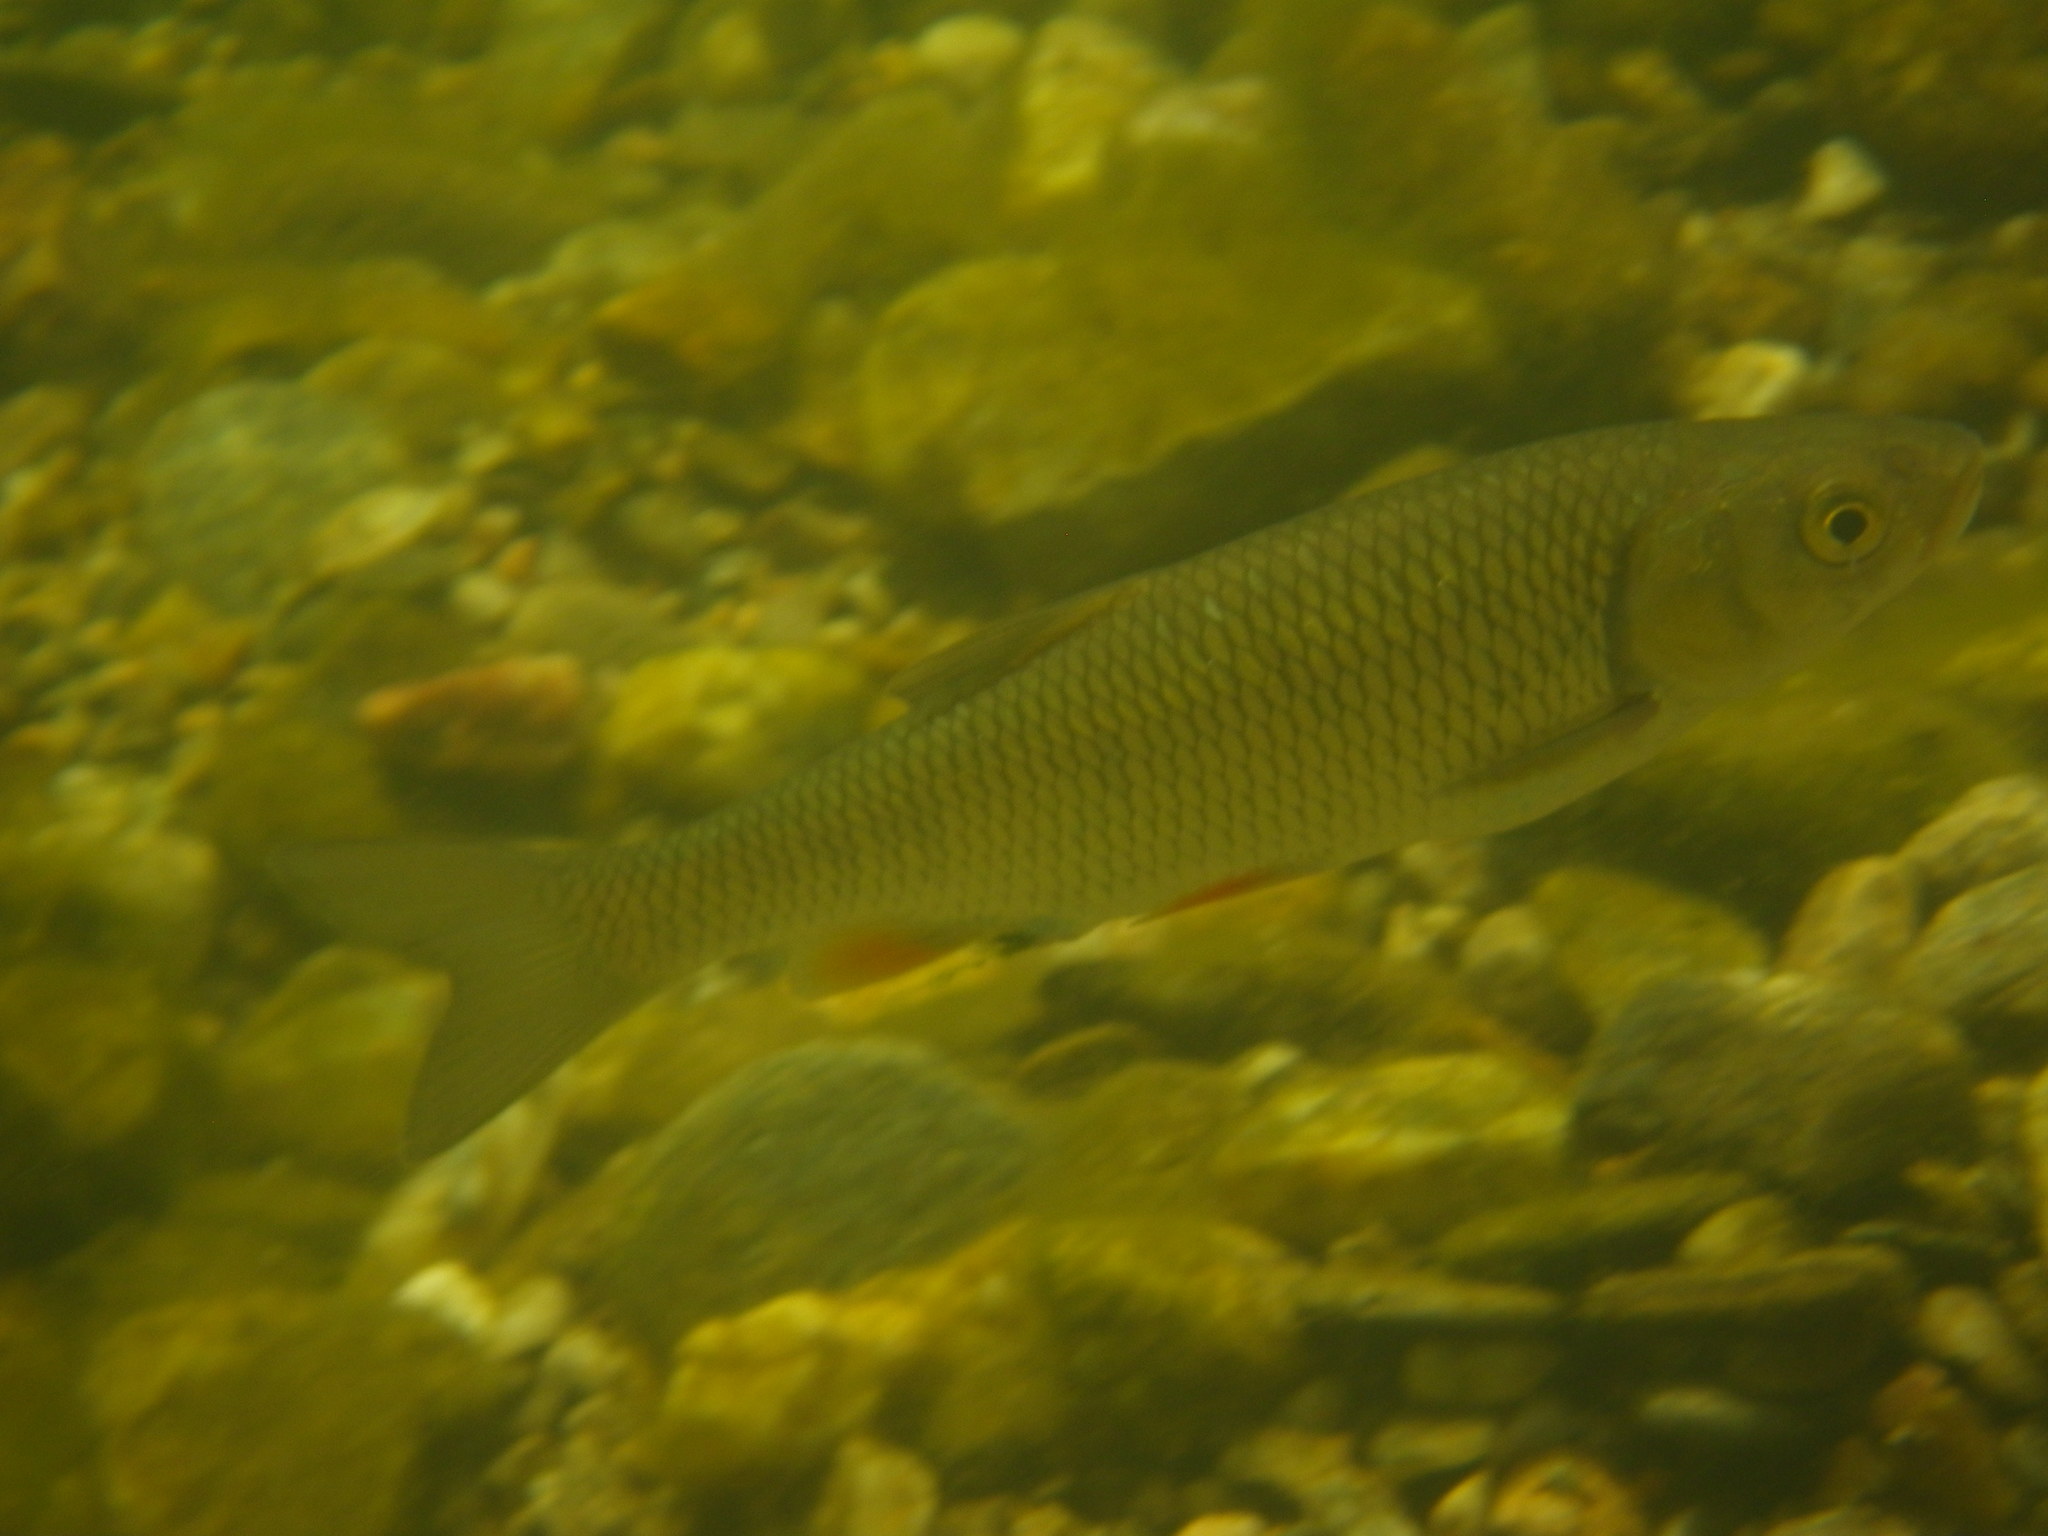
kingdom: Animalia
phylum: Chordata
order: Cypriniformes
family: Cyprinidae
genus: Squalius
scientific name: Squalius cephalus
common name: Chub
